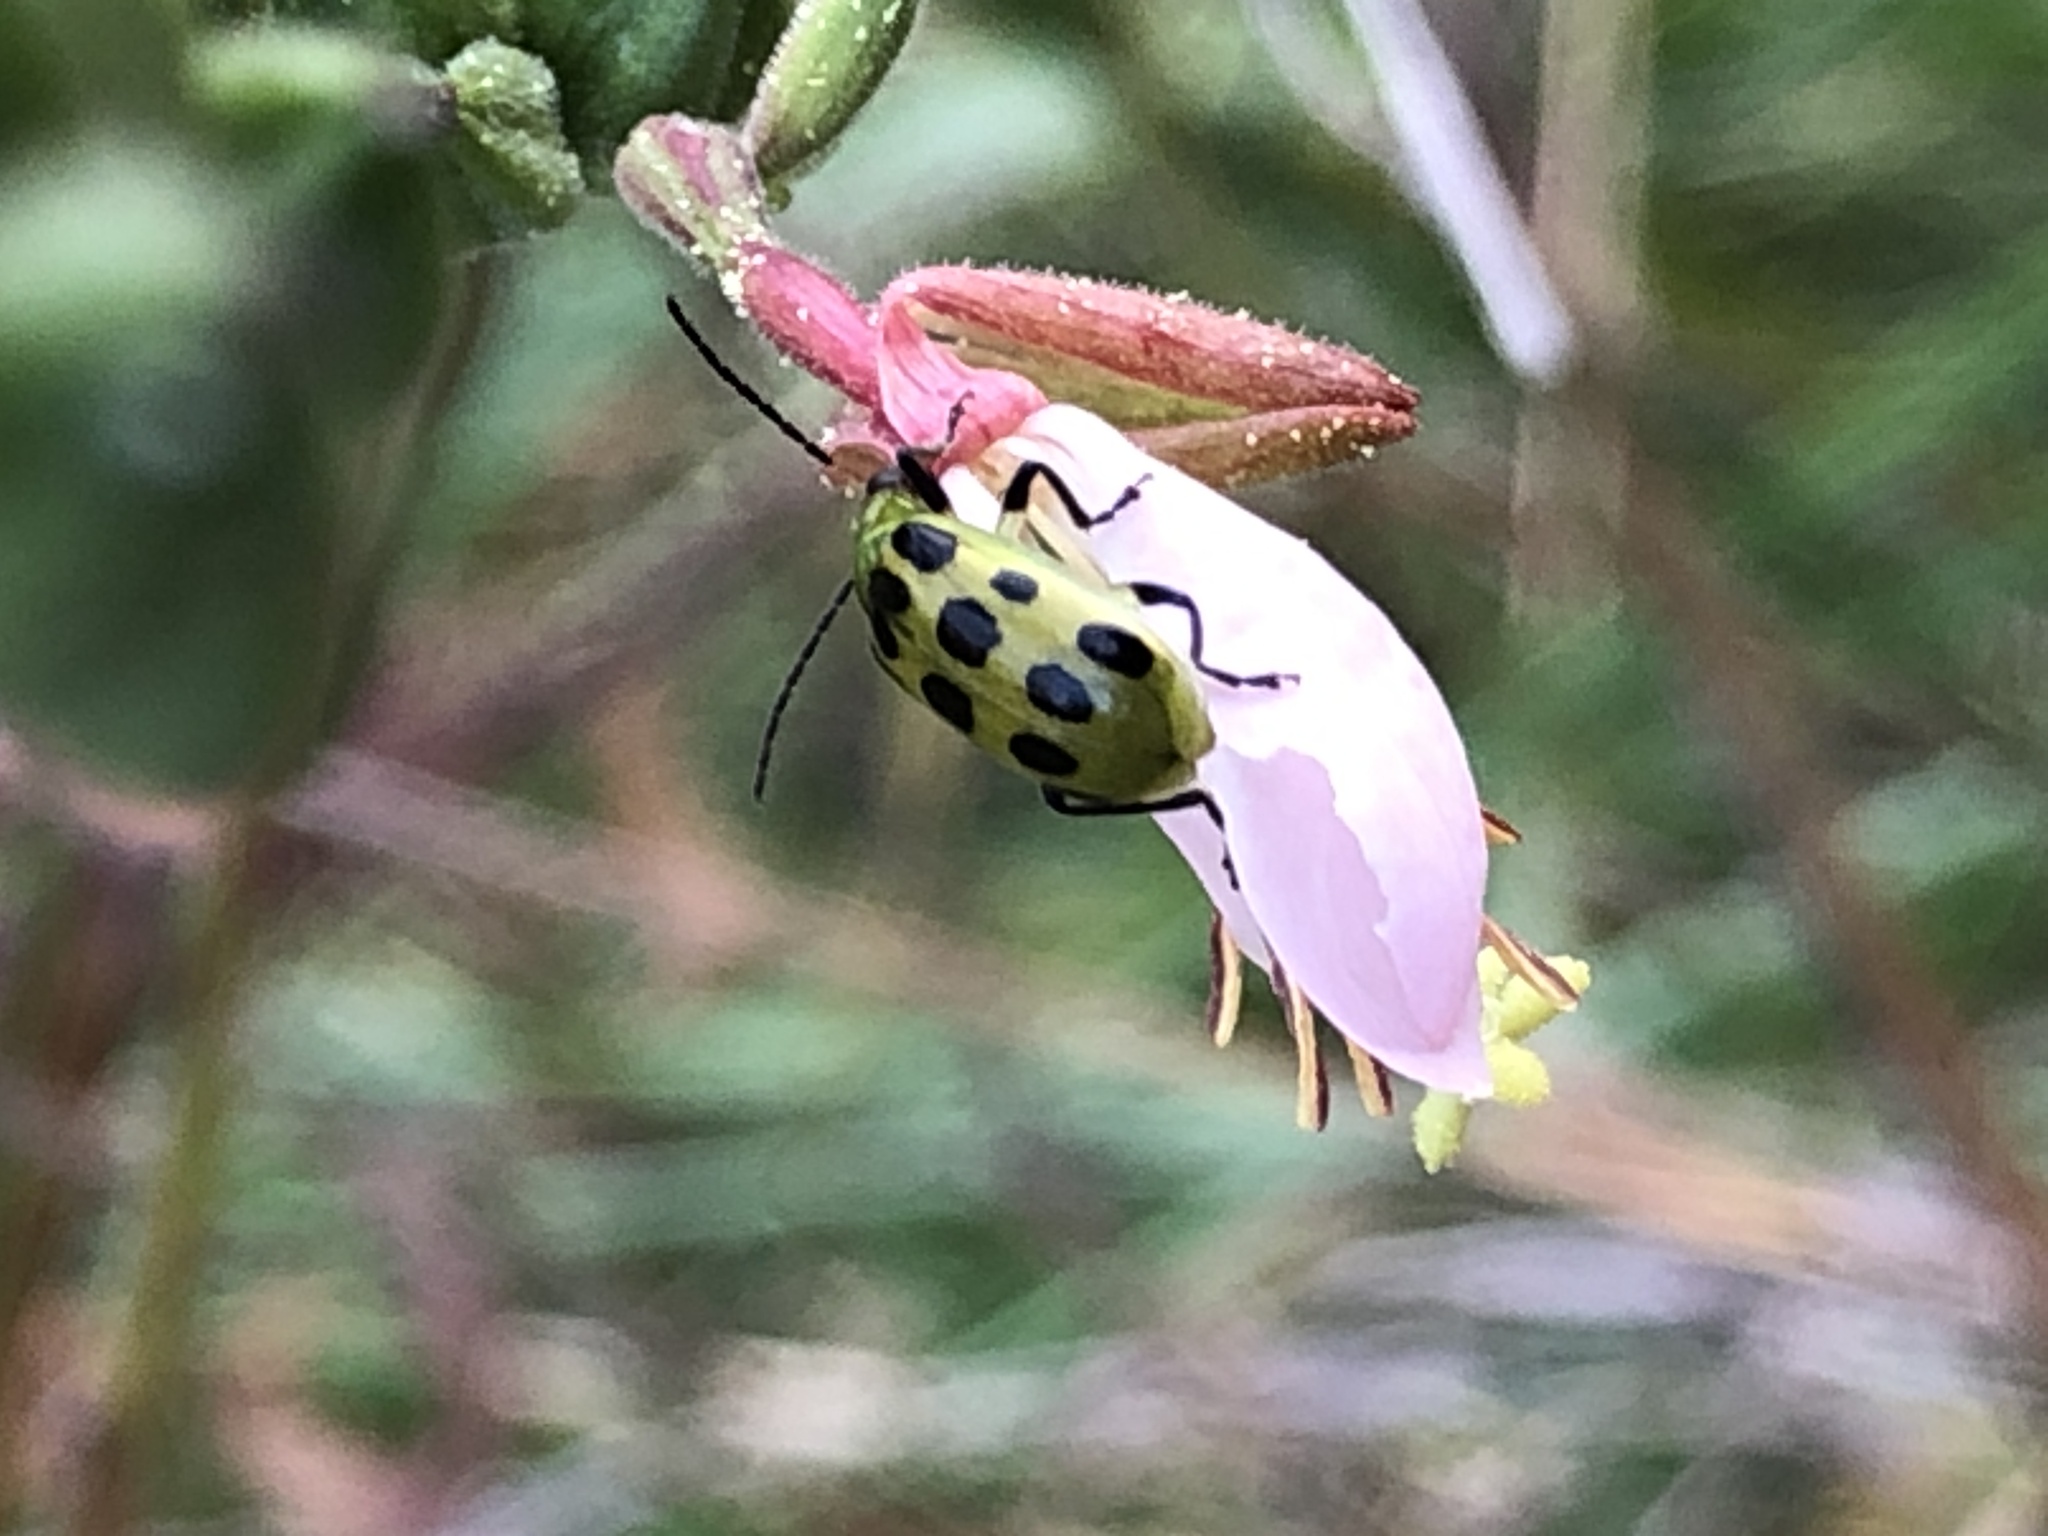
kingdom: Animalia
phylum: Arthropoda
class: Insecta
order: Coleoptera
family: Chrysomelidae
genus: Diabrotica
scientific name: Diabrotica undecimpunctata
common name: Spotted cucumber beetle
